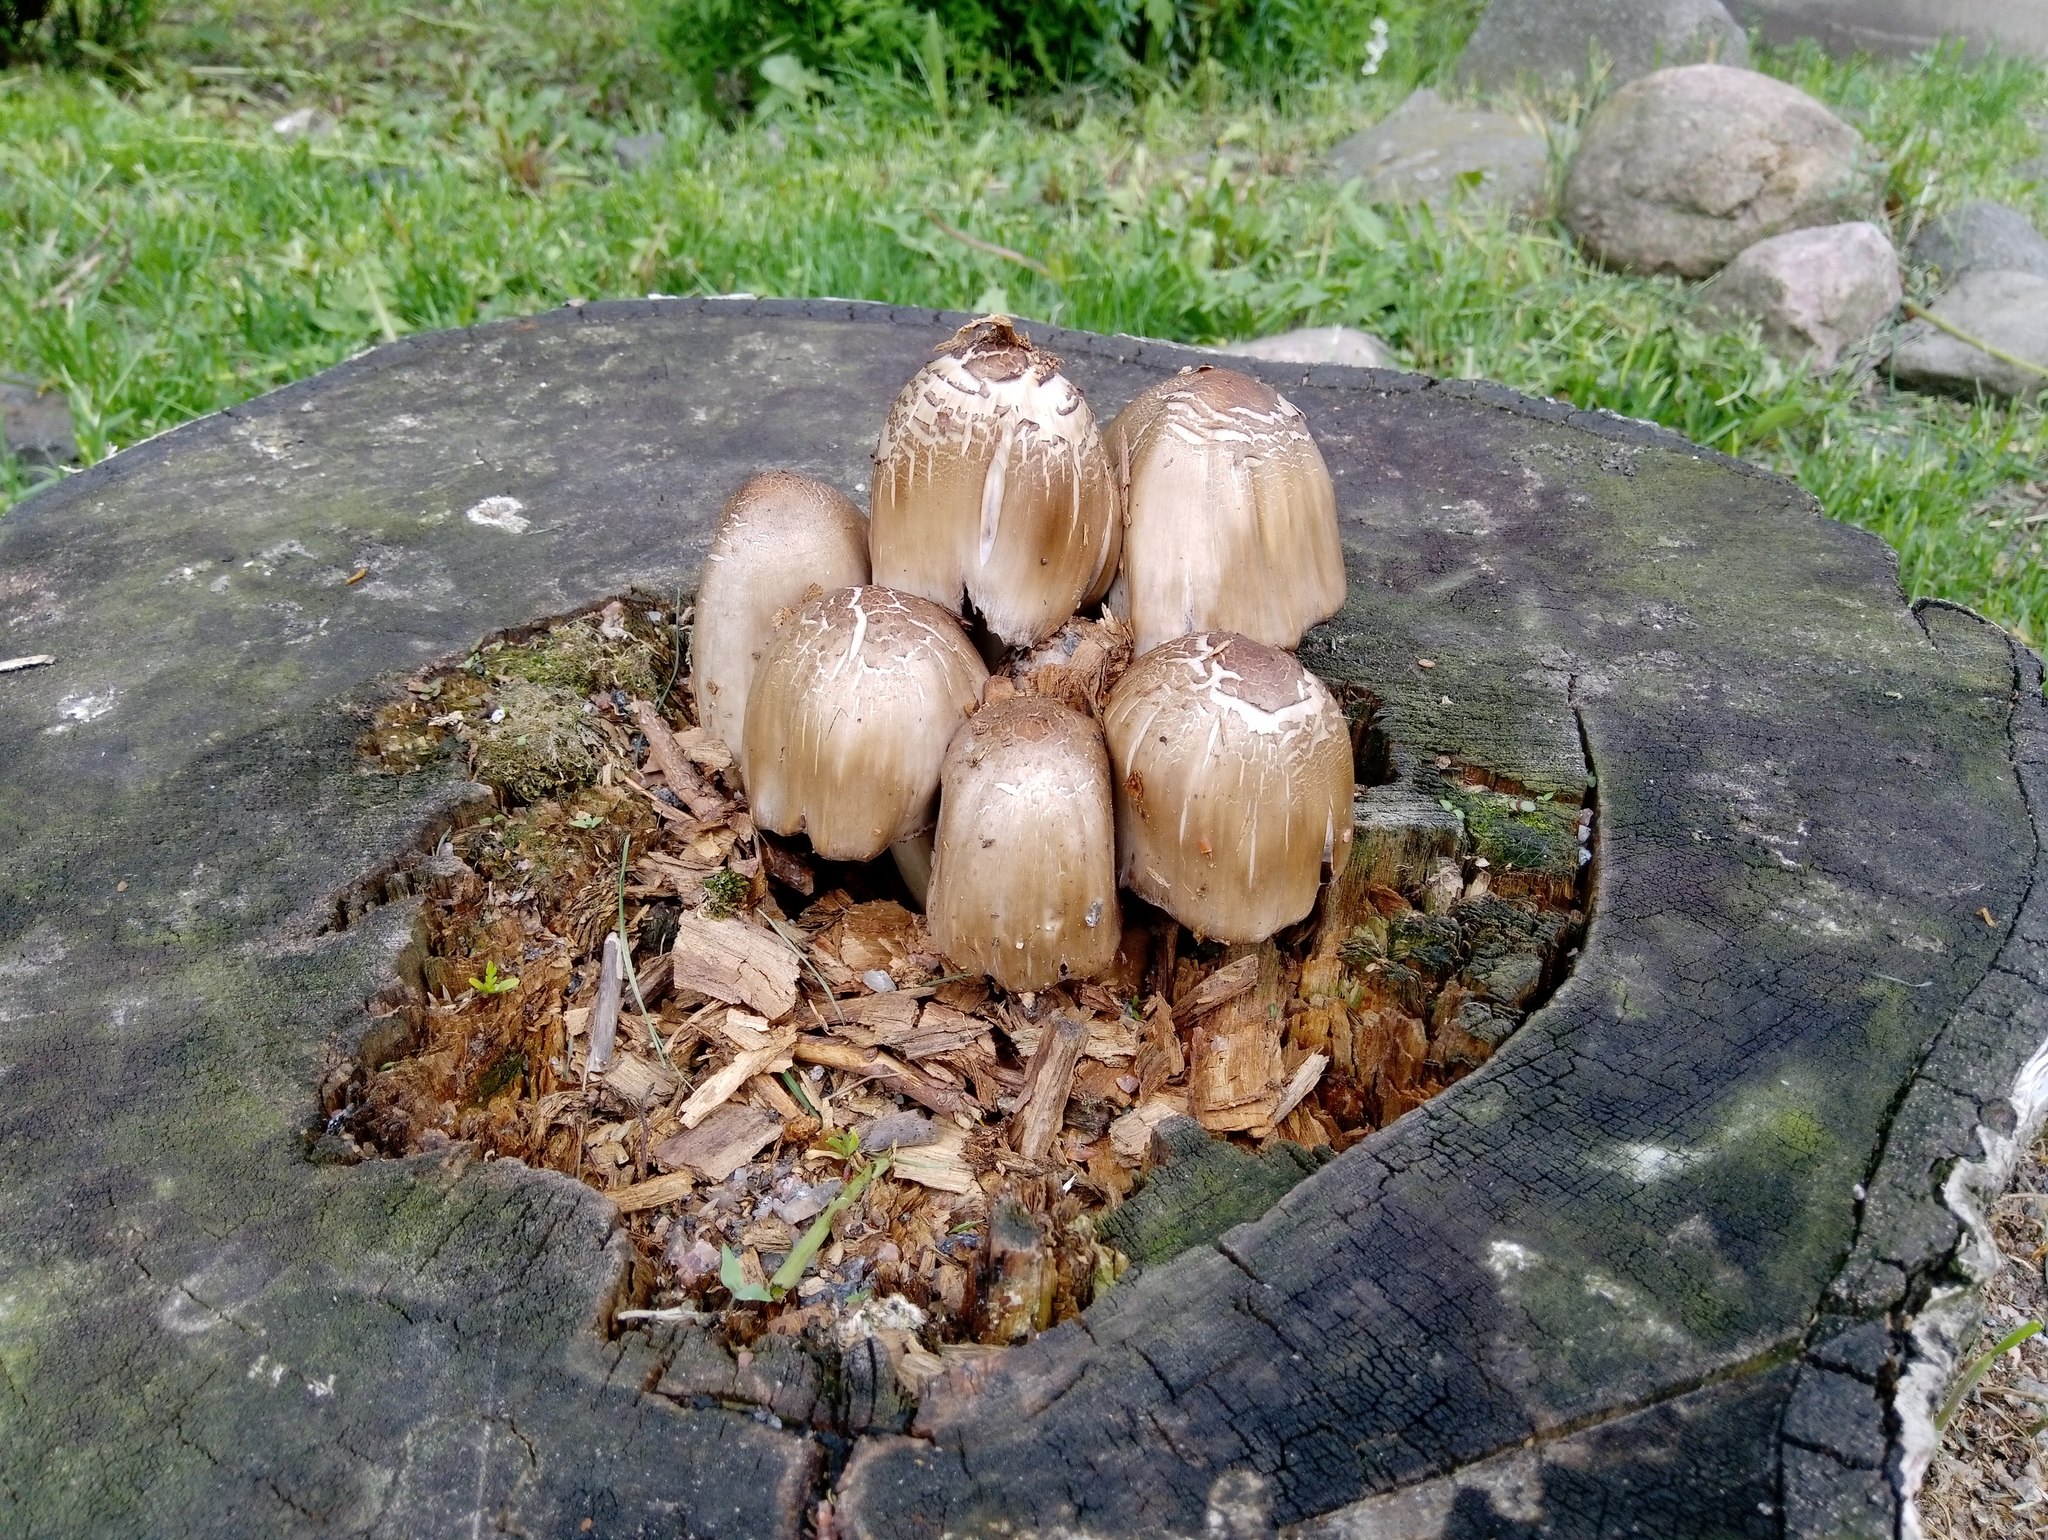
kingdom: Fungi
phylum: Basidiomycota
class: Agaricomycetes
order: Agaricales
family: Psathyrellaceae
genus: Coprinopsis
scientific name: Coprinopsis atramentaria
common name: Common ink-cap
